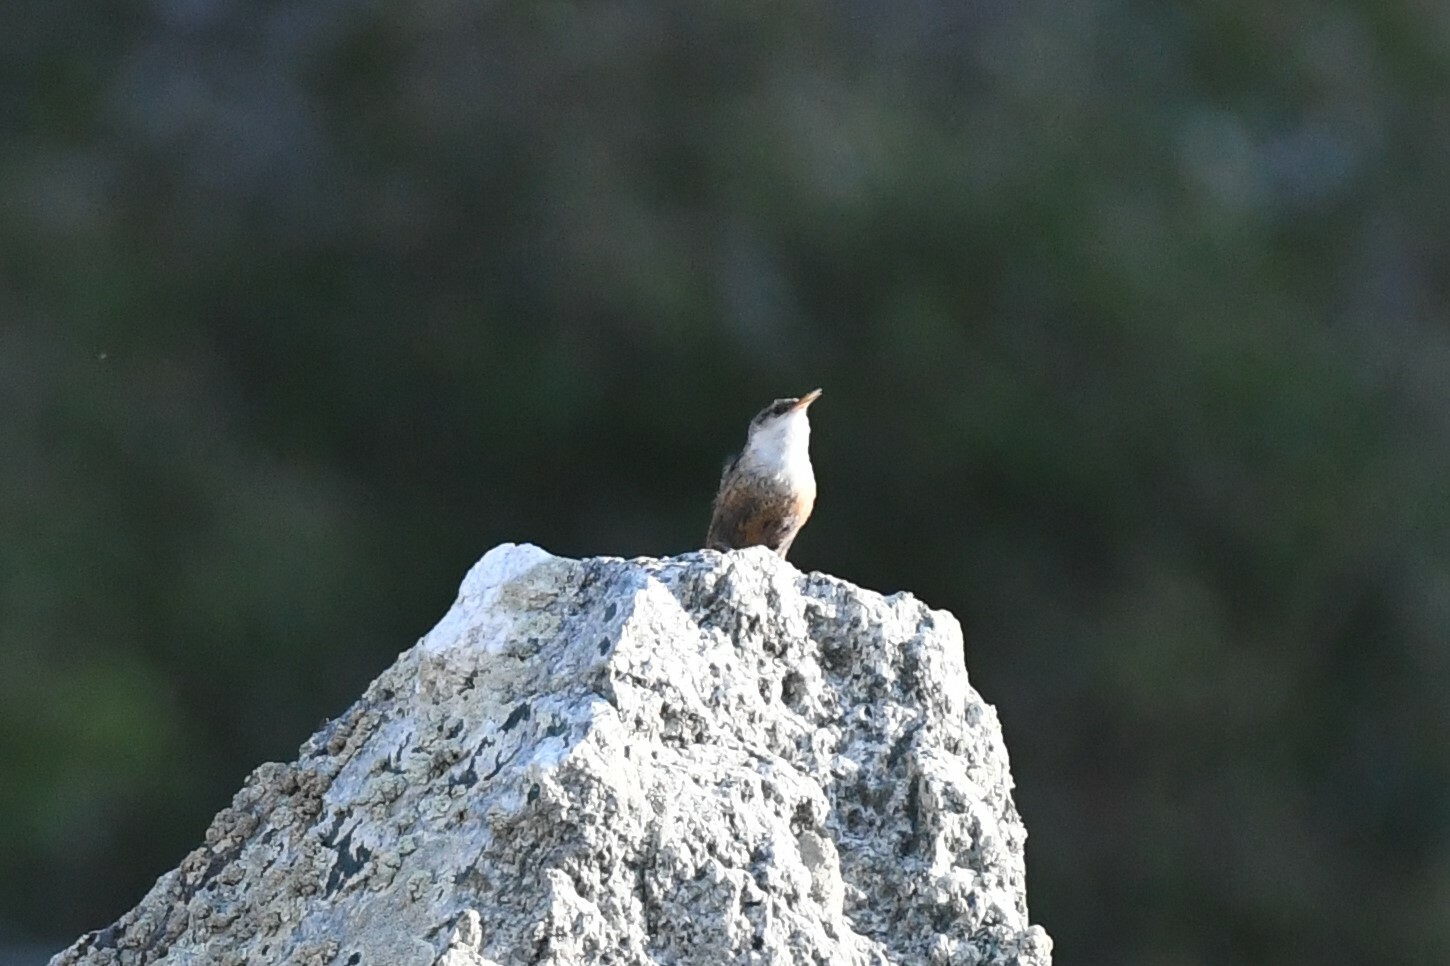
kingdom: Animalia
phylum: Chordata
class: Aves
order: Passeriformes
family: Troglodytidae
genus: Catherpes
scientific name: Catherpes mexicanus
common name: Canyon wren
